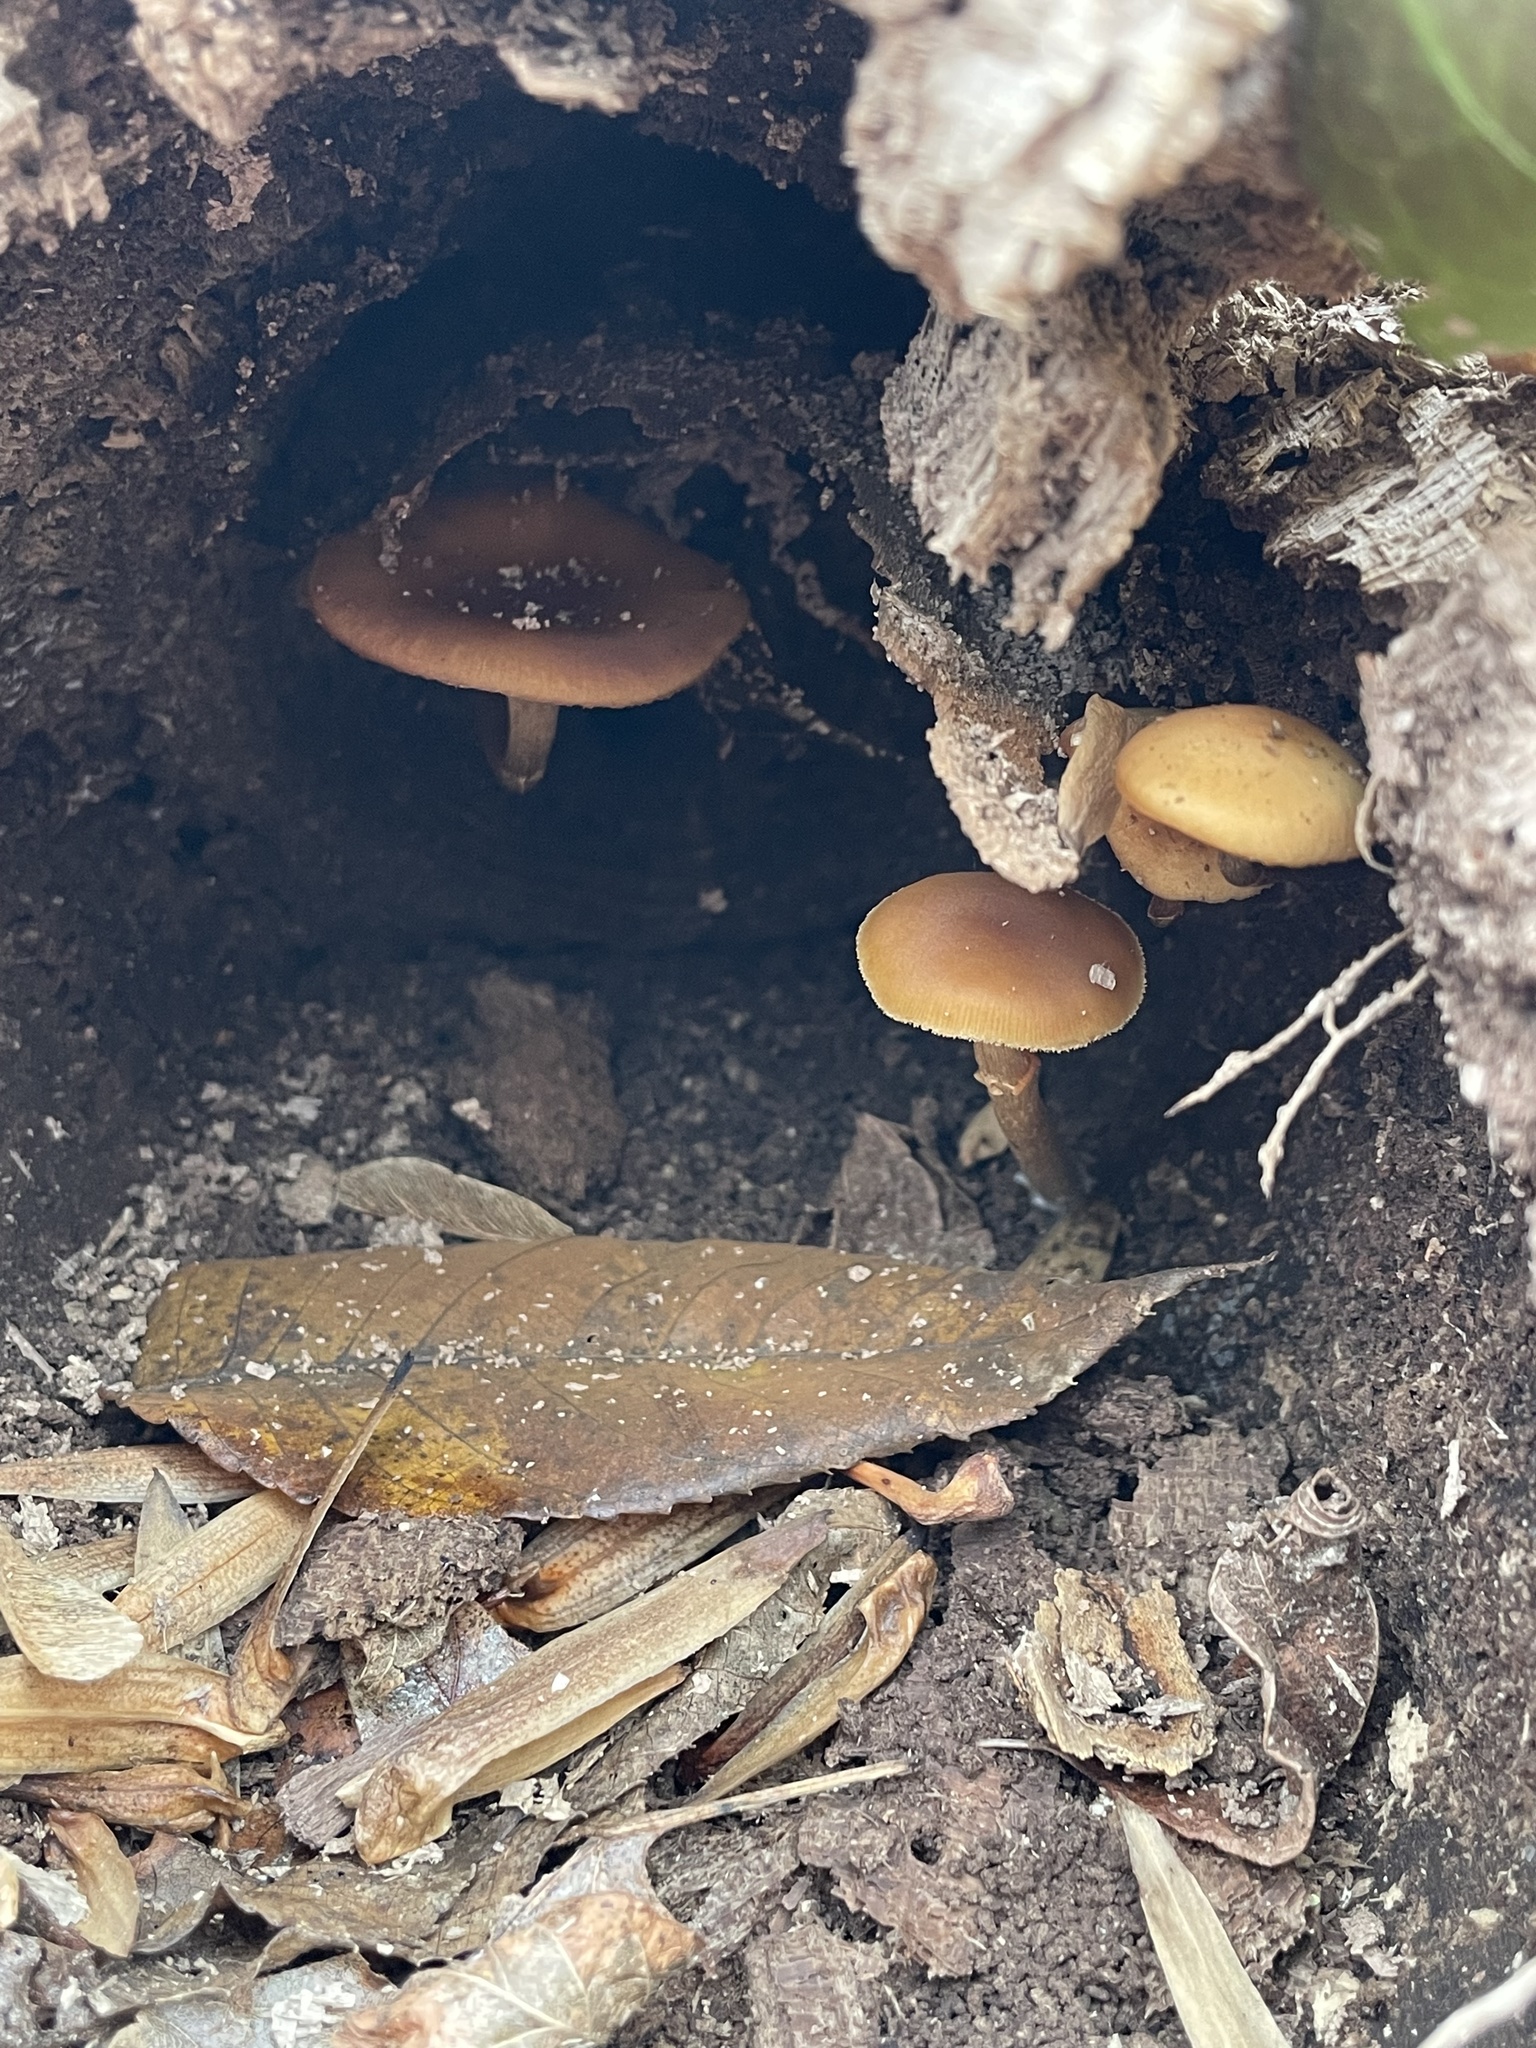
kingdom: Fungi
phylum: Basidiomycota
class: Agaricomycetes
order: Agaricales
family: Hymenogastraceae
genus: Galerina
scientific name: Galerina marginata
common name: Funeral bell
